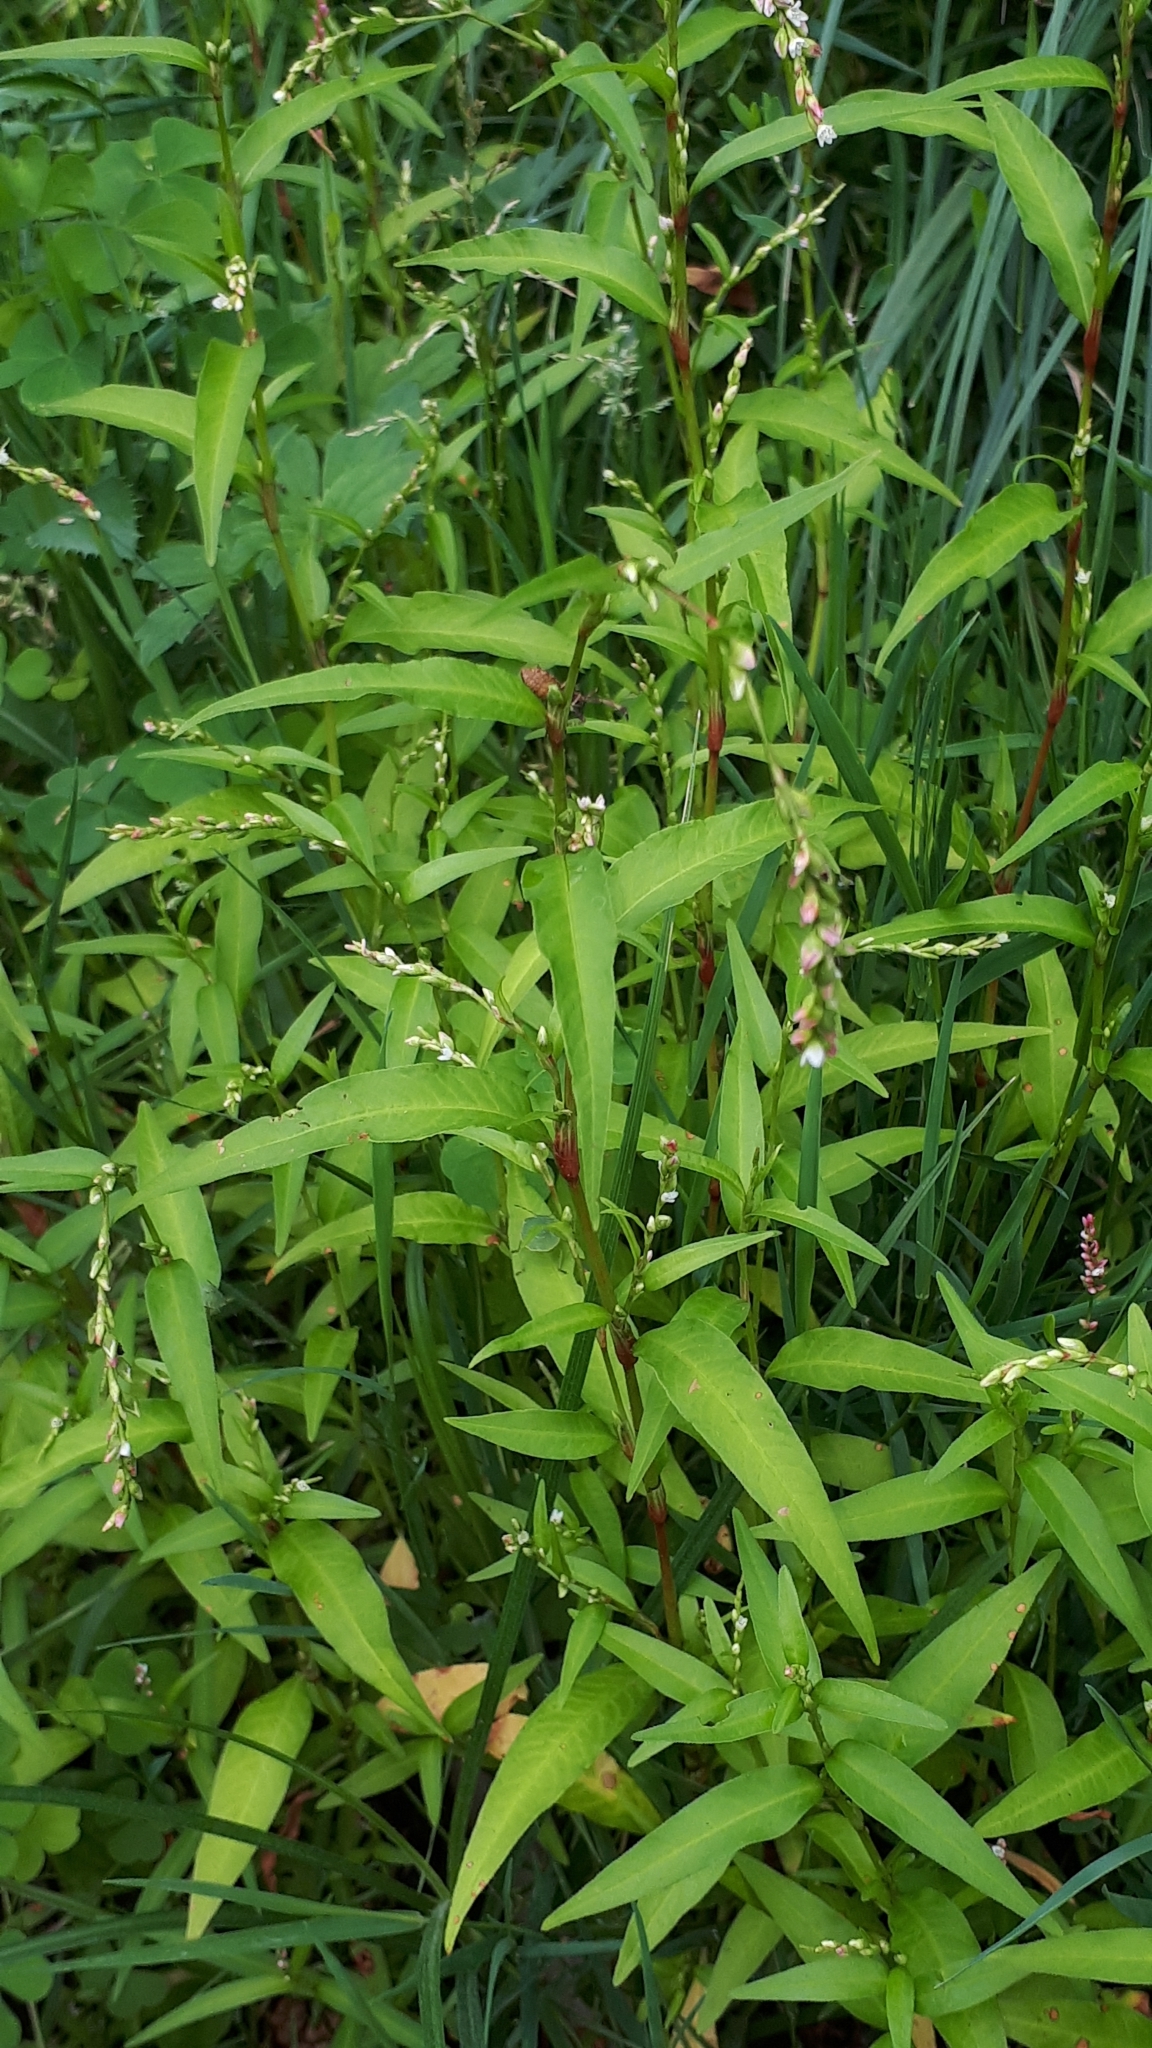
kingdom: Plantae
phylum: Tracheophyta
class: Magnoliopsida
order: Caryophyllales
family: Polygonaceae
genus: Persicaria
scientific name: Persicaria hydropiper
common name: Water-pepper
